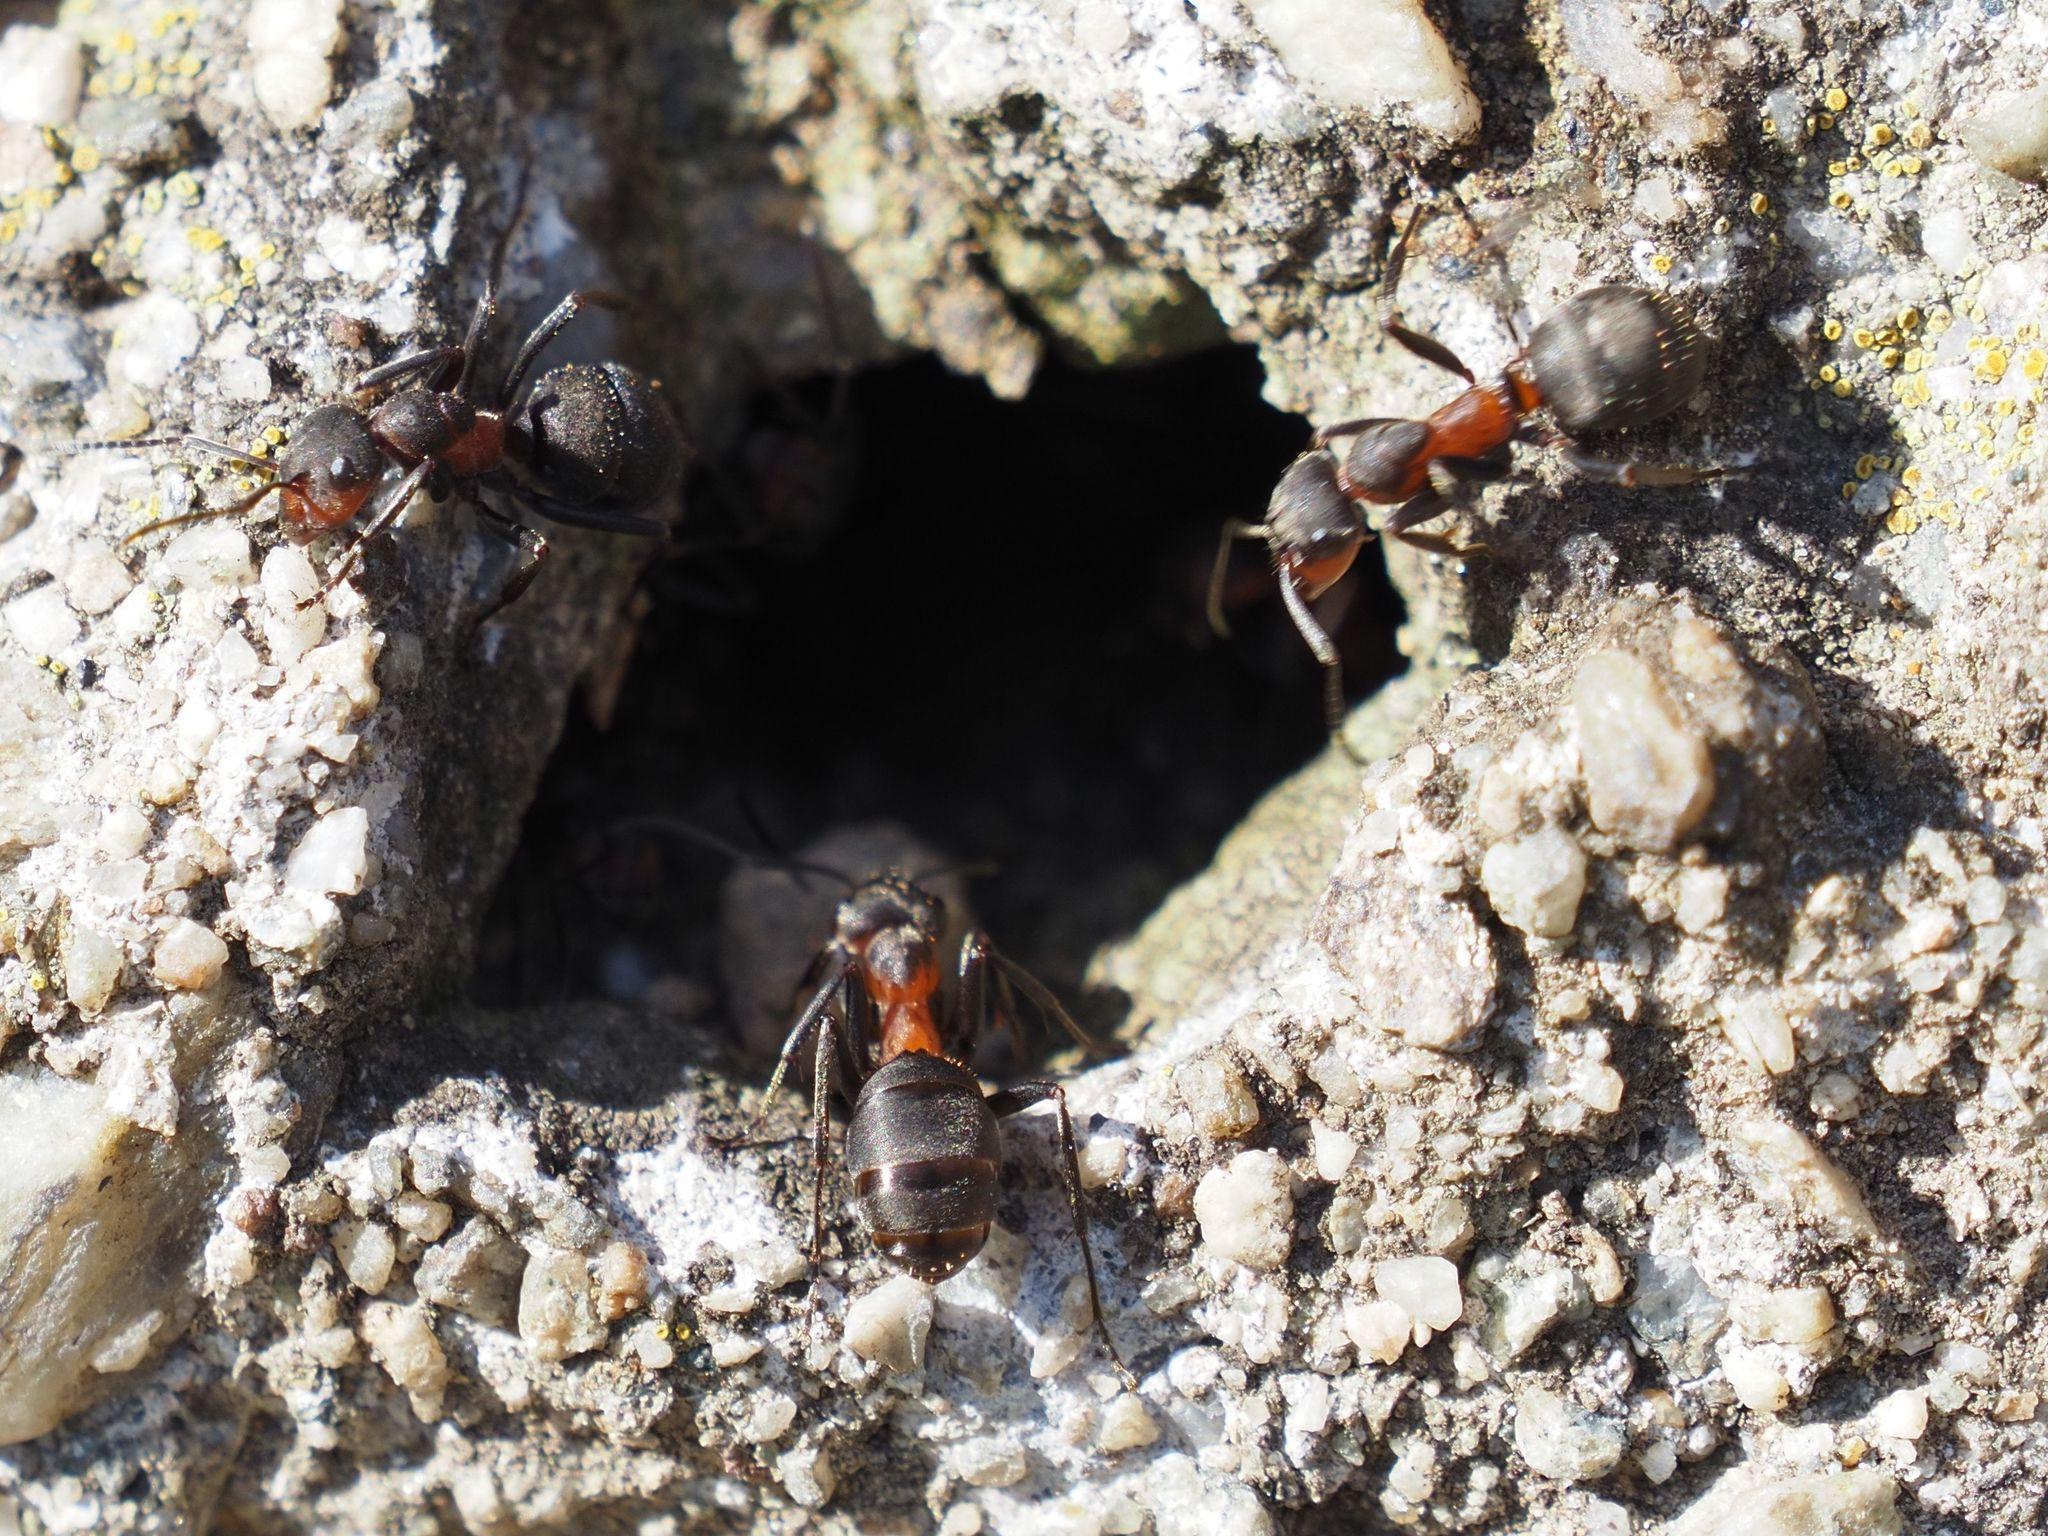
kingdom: Animalia
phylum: Arthropoda
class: Insecta
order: Hymenoptera
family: Formicidae
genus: Formica
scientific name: Formica rufa
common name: Red wood ant
